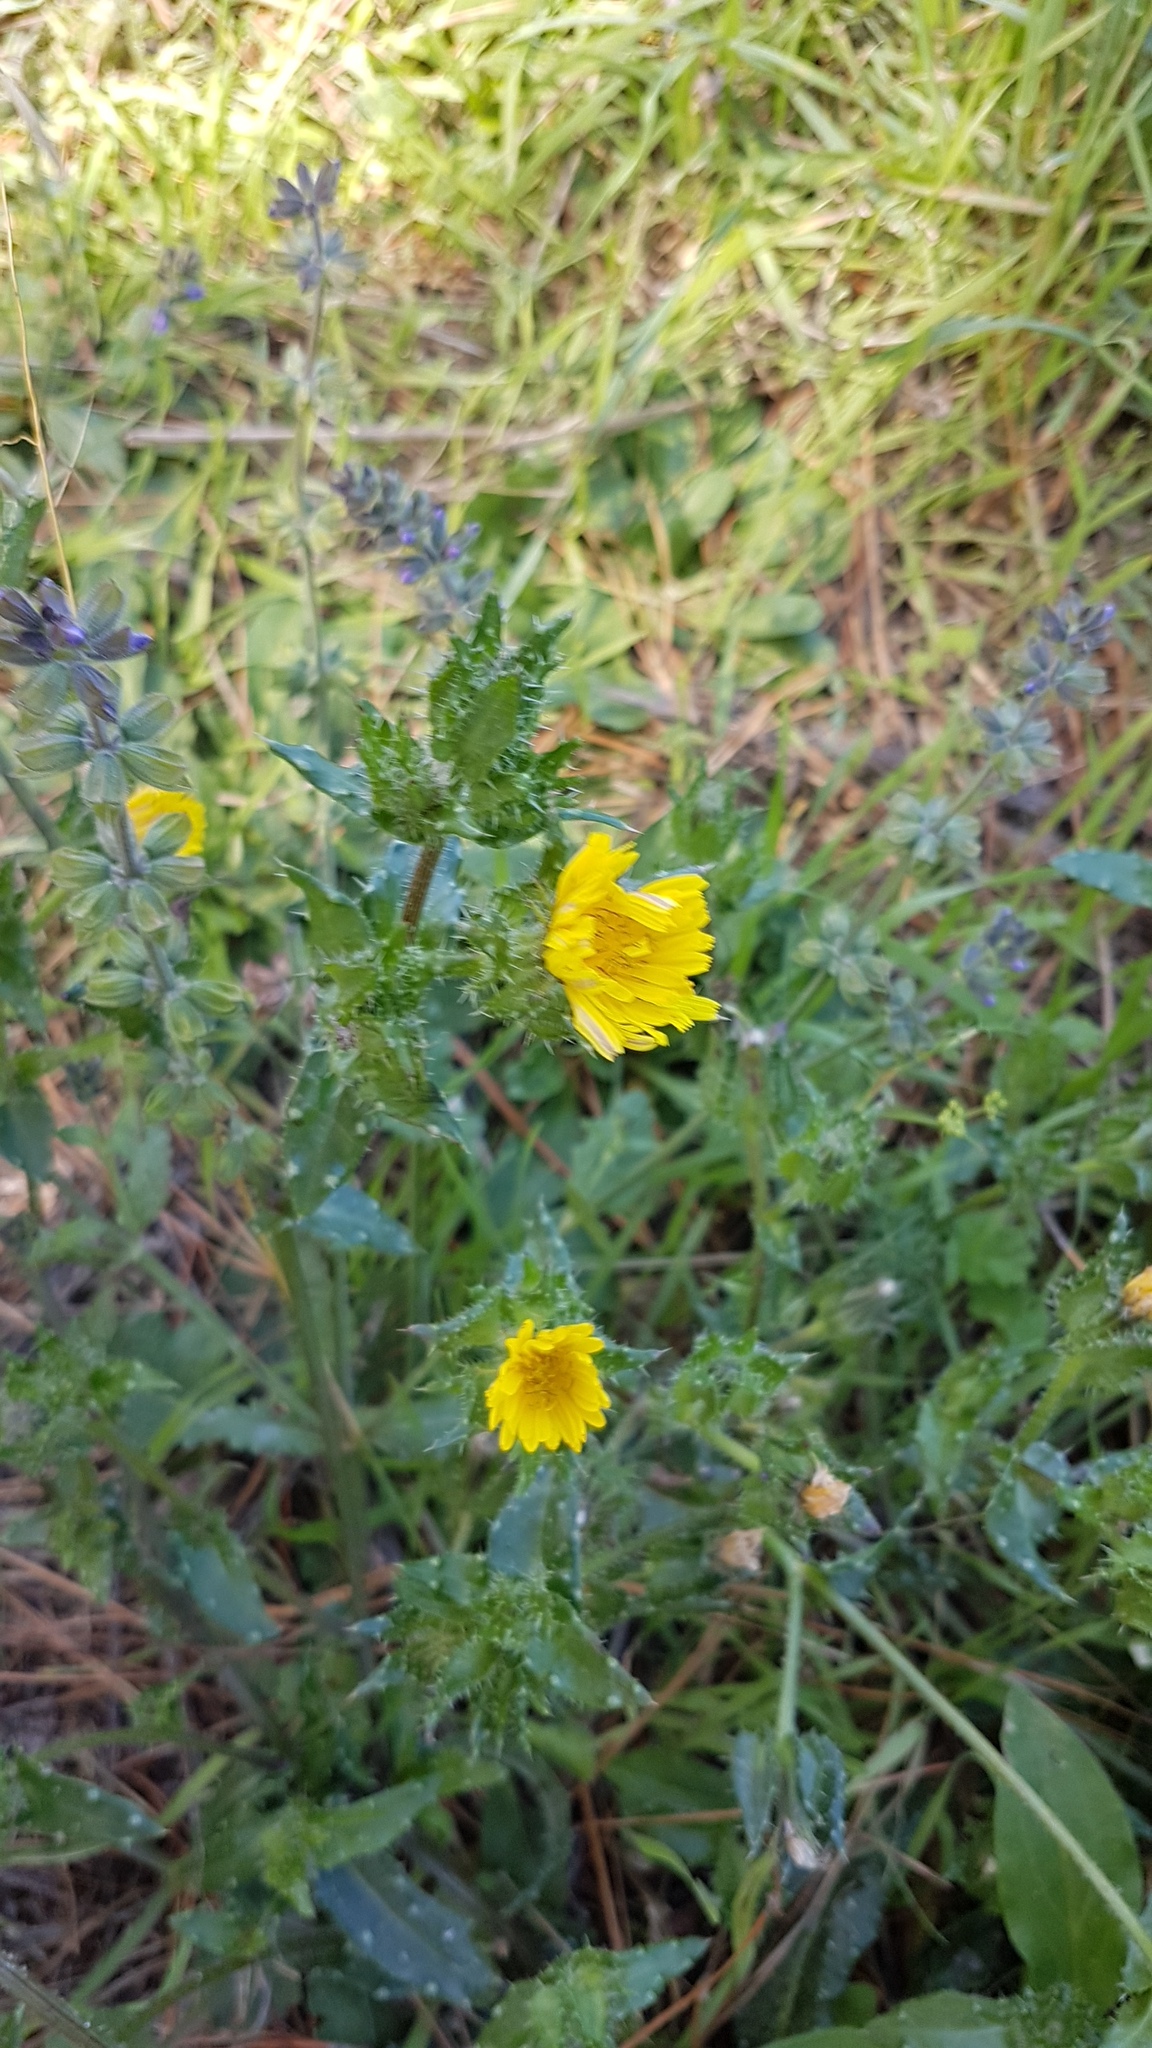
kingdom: Plantae
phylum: Tracheophyta
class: Magnoliopsida
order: Asterales
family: Asteraceae
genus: Helminthotheca
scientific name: Helminthotheca echioides
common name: Ox-tongue
